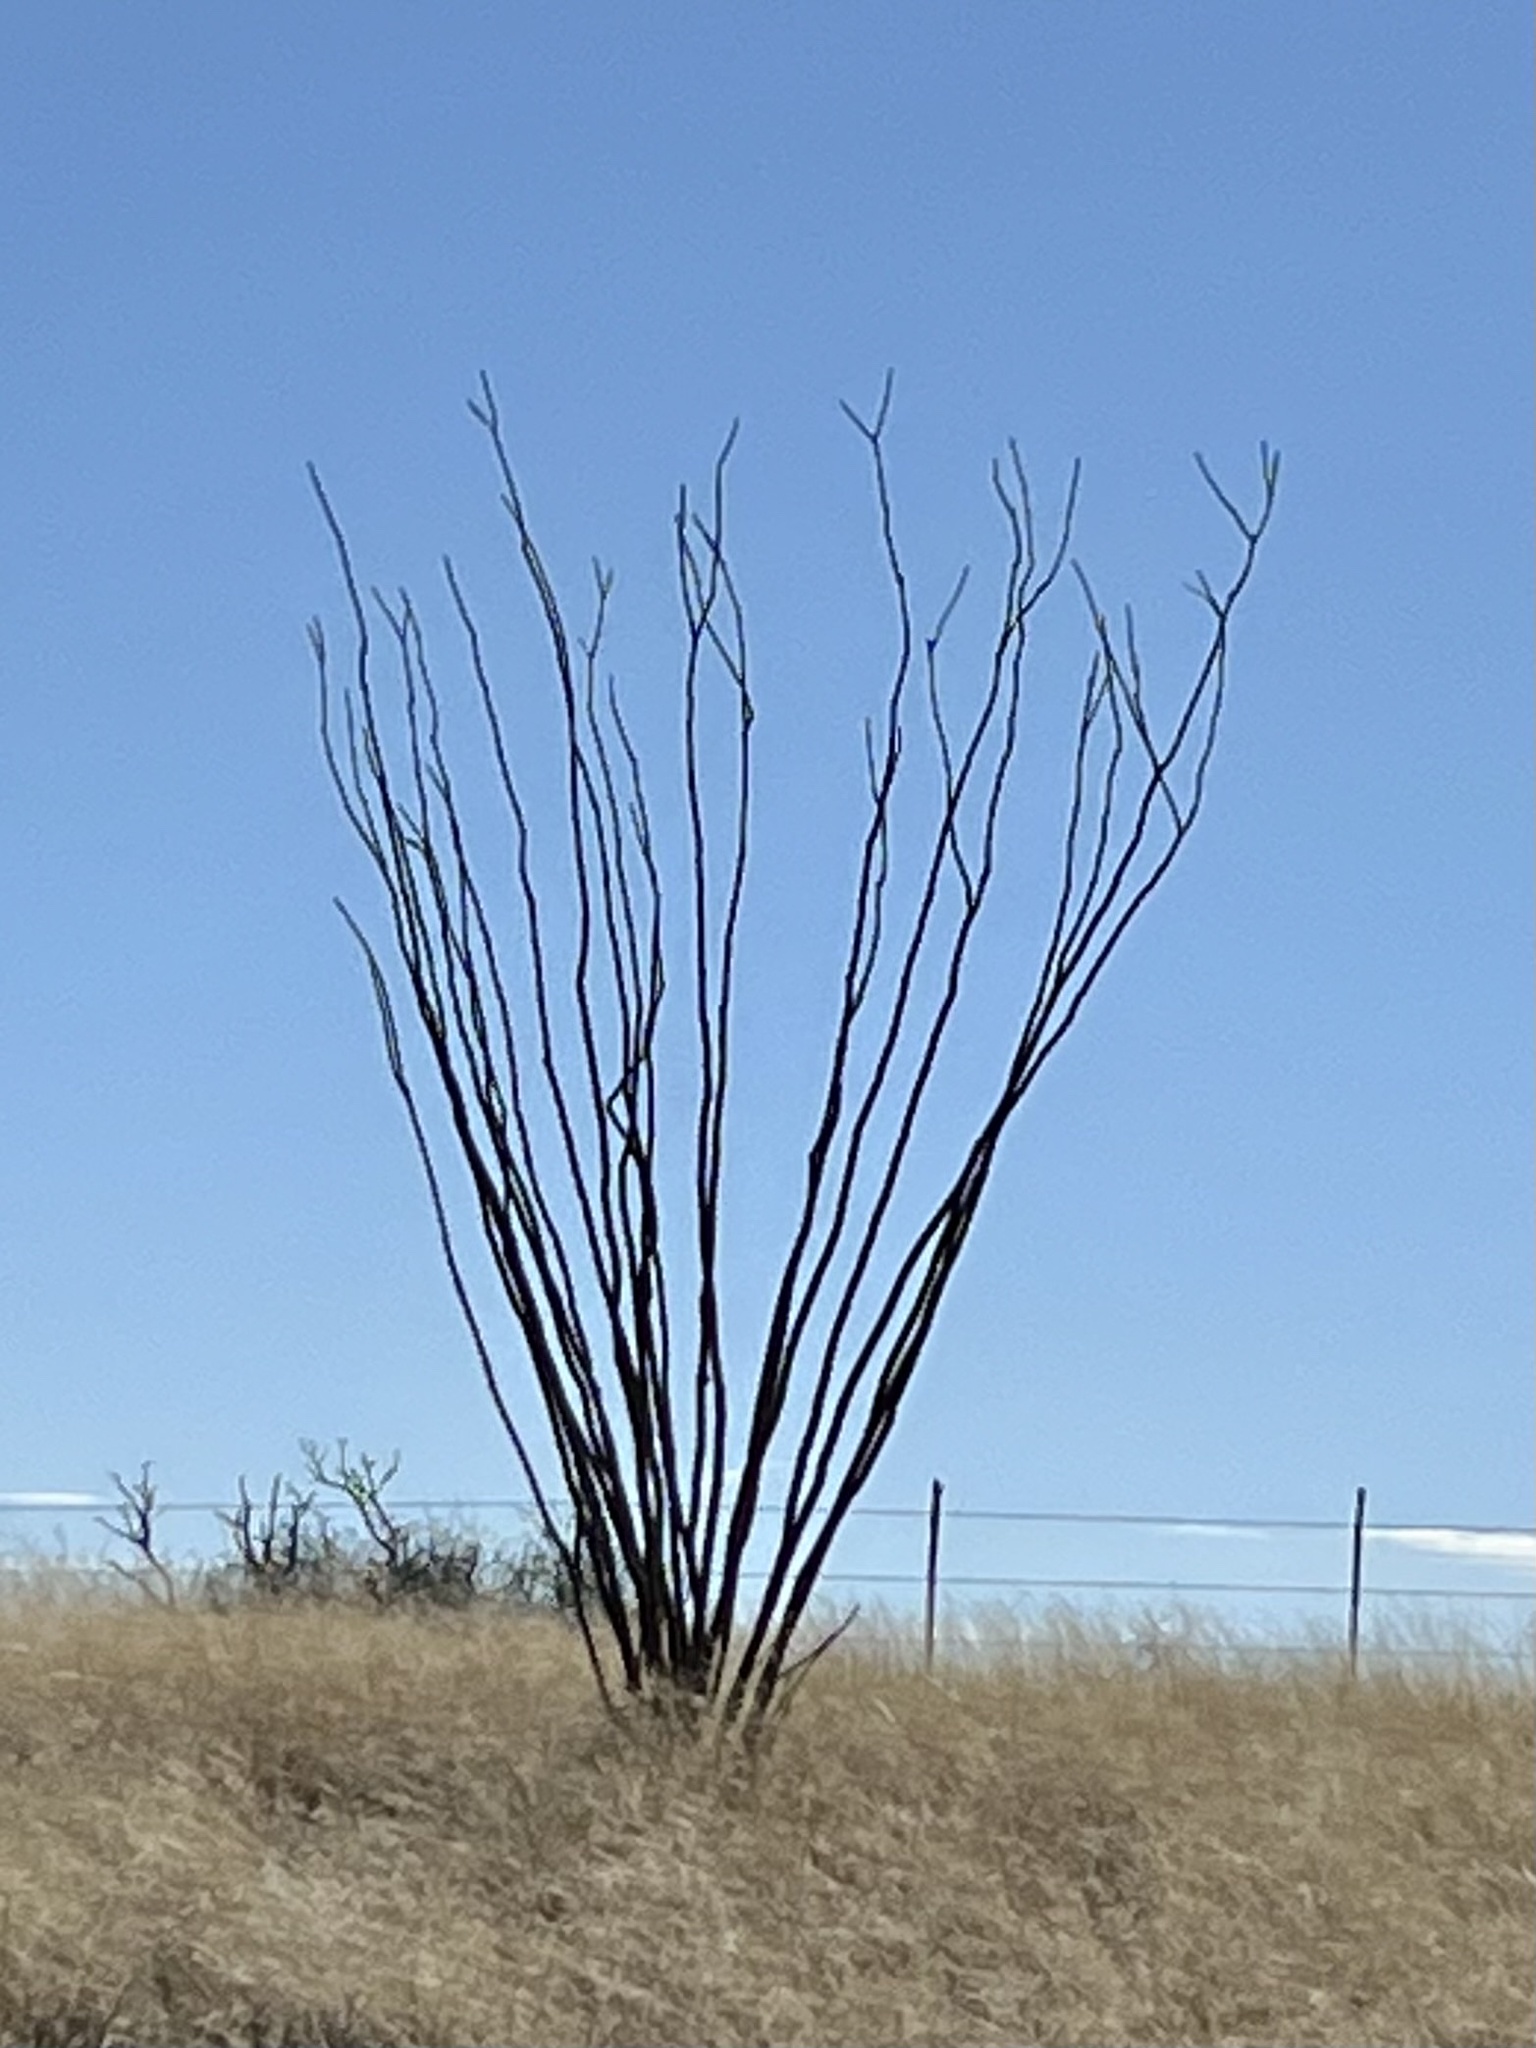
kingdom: Plantae
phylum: Tracheophyta
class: Magnoliopsida
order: Ericales
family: Fouquieriaceae
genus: Fouquieria
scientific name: Fouquieria splendens
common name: Vine-cactus
